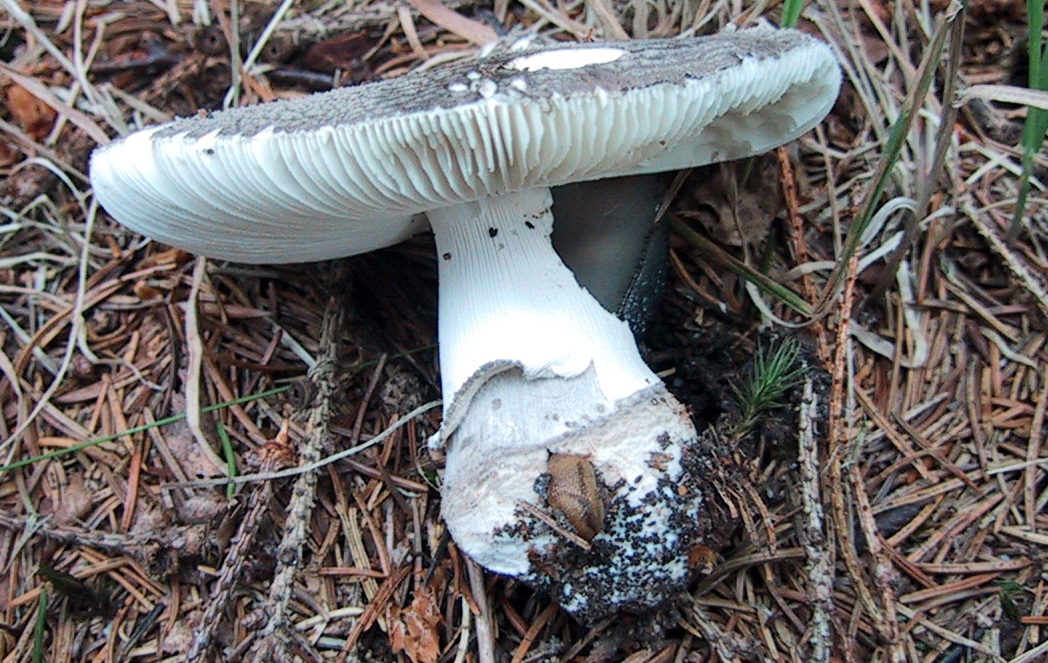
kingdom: Fungi
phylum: Basidiomycota
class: Agaricomycetes
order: Agaricales
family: Amanitaceae
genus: Amanita
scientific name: Amanita excelsa
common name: European false blusher
